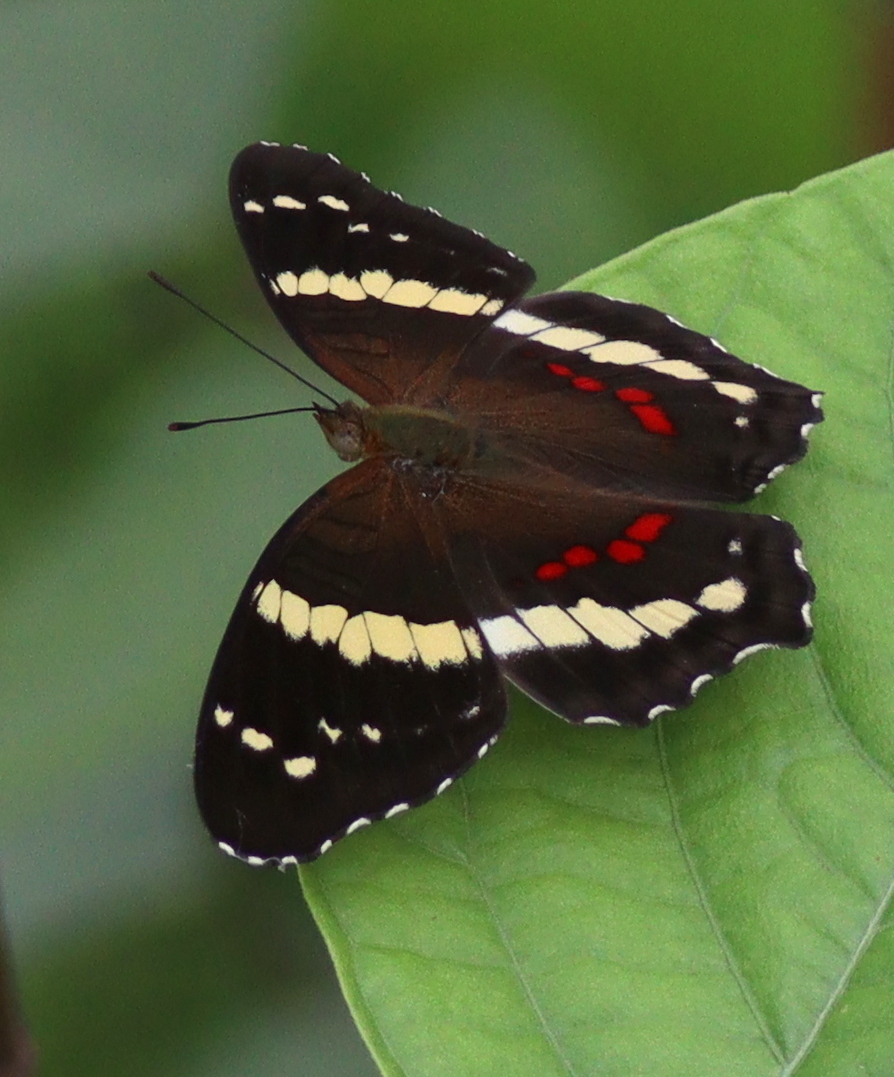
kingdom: Animalia
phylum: Arthropoda
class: Insecta
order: Lepidoptera
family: Nymphalidae
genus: Anartia
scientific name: Anartia fatima
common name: Banded peacock
